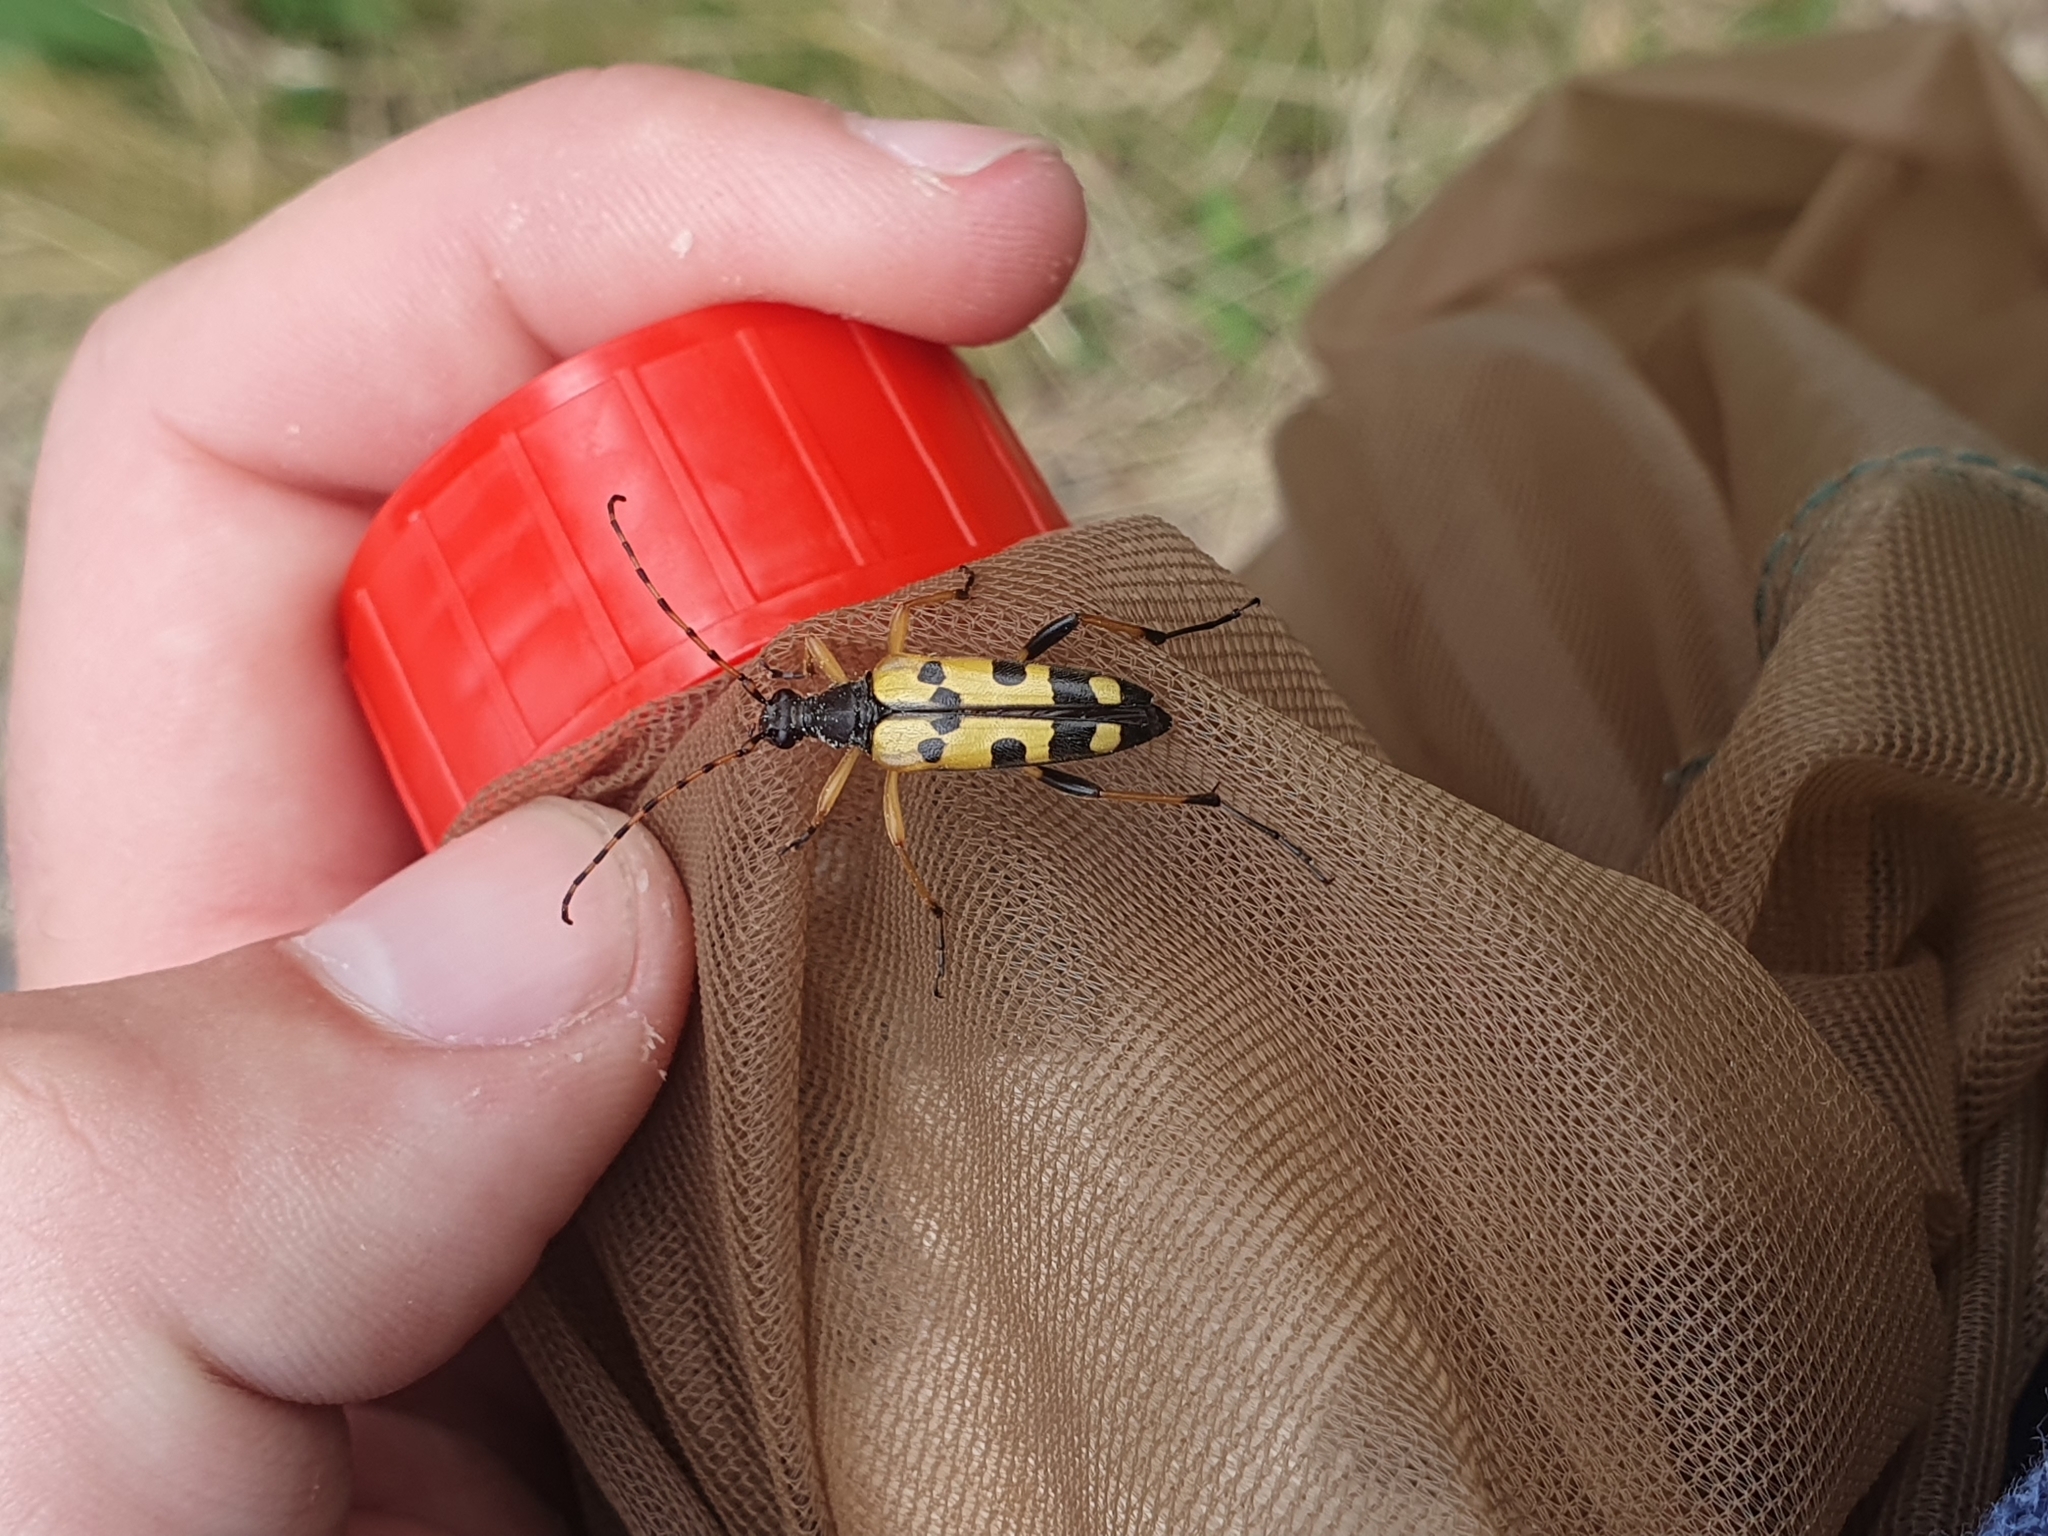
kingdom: Animalia
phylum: Arthropoda
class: Insecta
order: Coleoptera
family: Cerambycidae
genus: Rutpela
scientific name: Rutpela maculata
